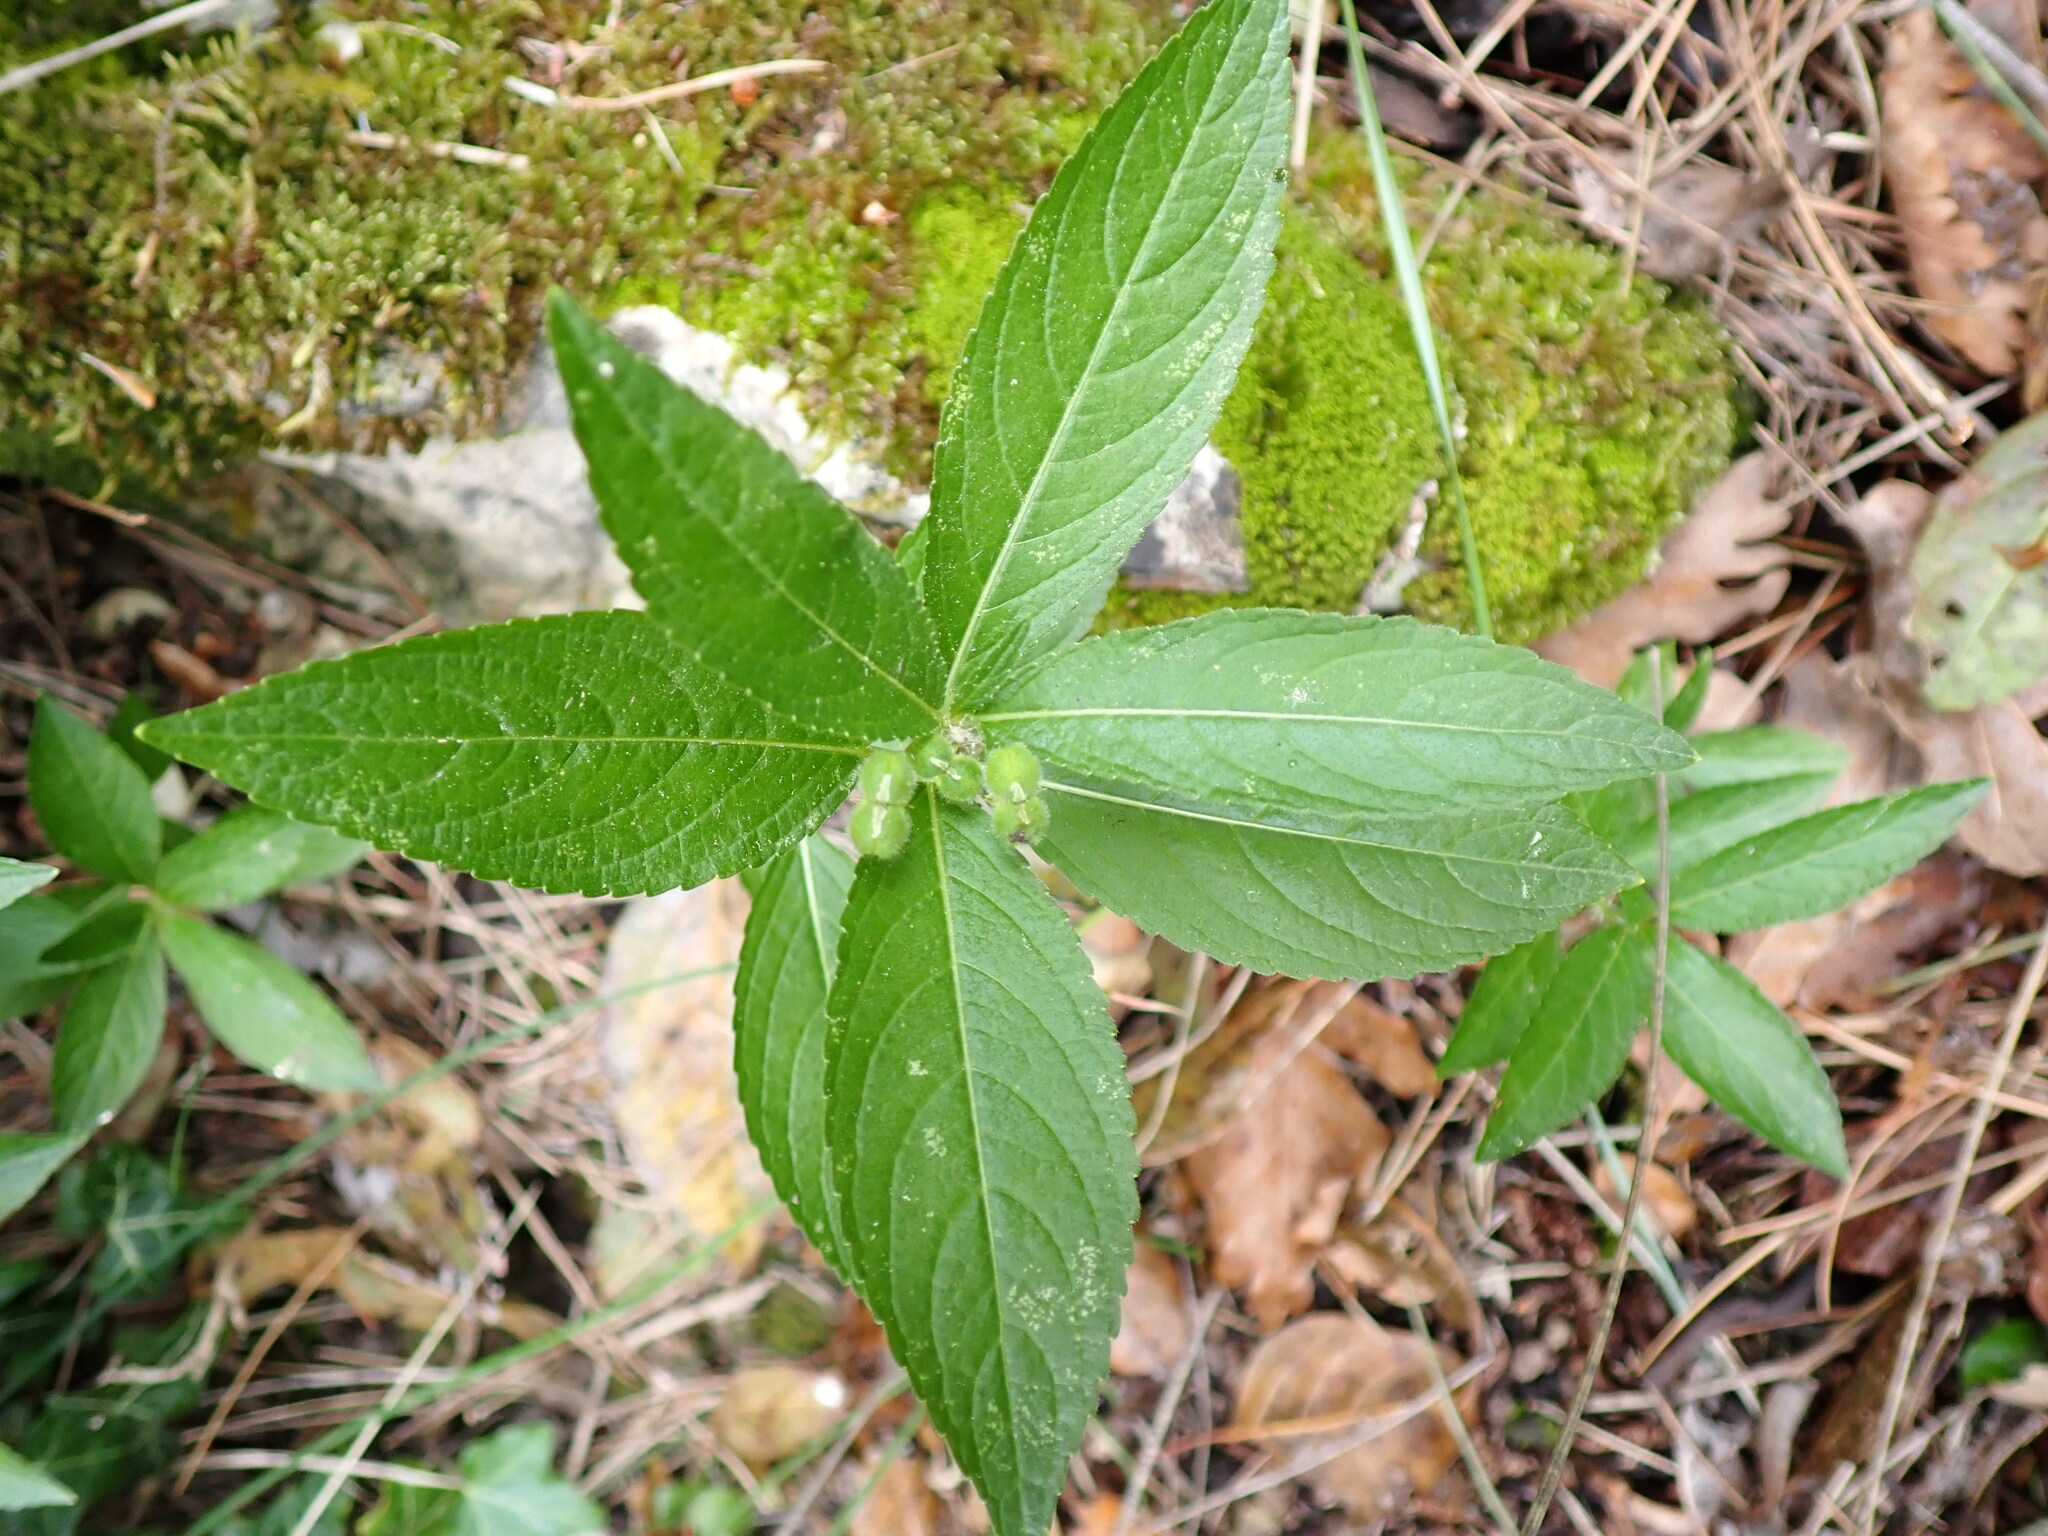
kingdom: Plantae
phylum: Tracheophyta
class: Magnoliopsida
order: Malpighiales
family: Euphorbiaceae
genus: Mercurialis
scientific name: Mercurialis perennis
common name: Dog mercury
